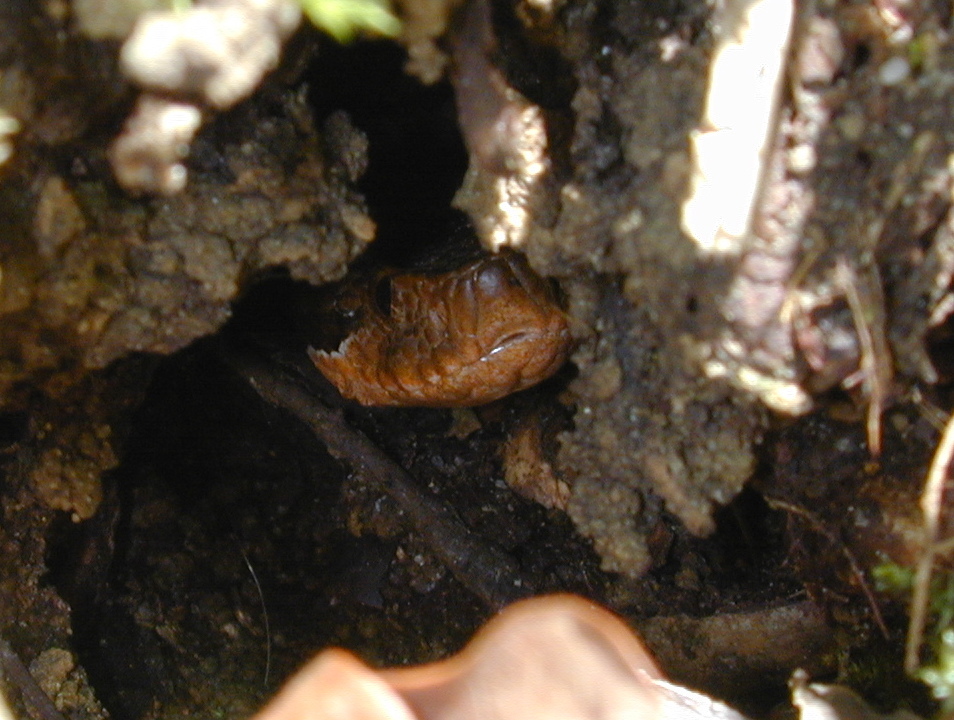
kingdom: Animalia
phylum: Chordata
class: Squamata
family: Viperidae
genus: Vipera
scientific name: Vipera aspis
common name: Asp viper
